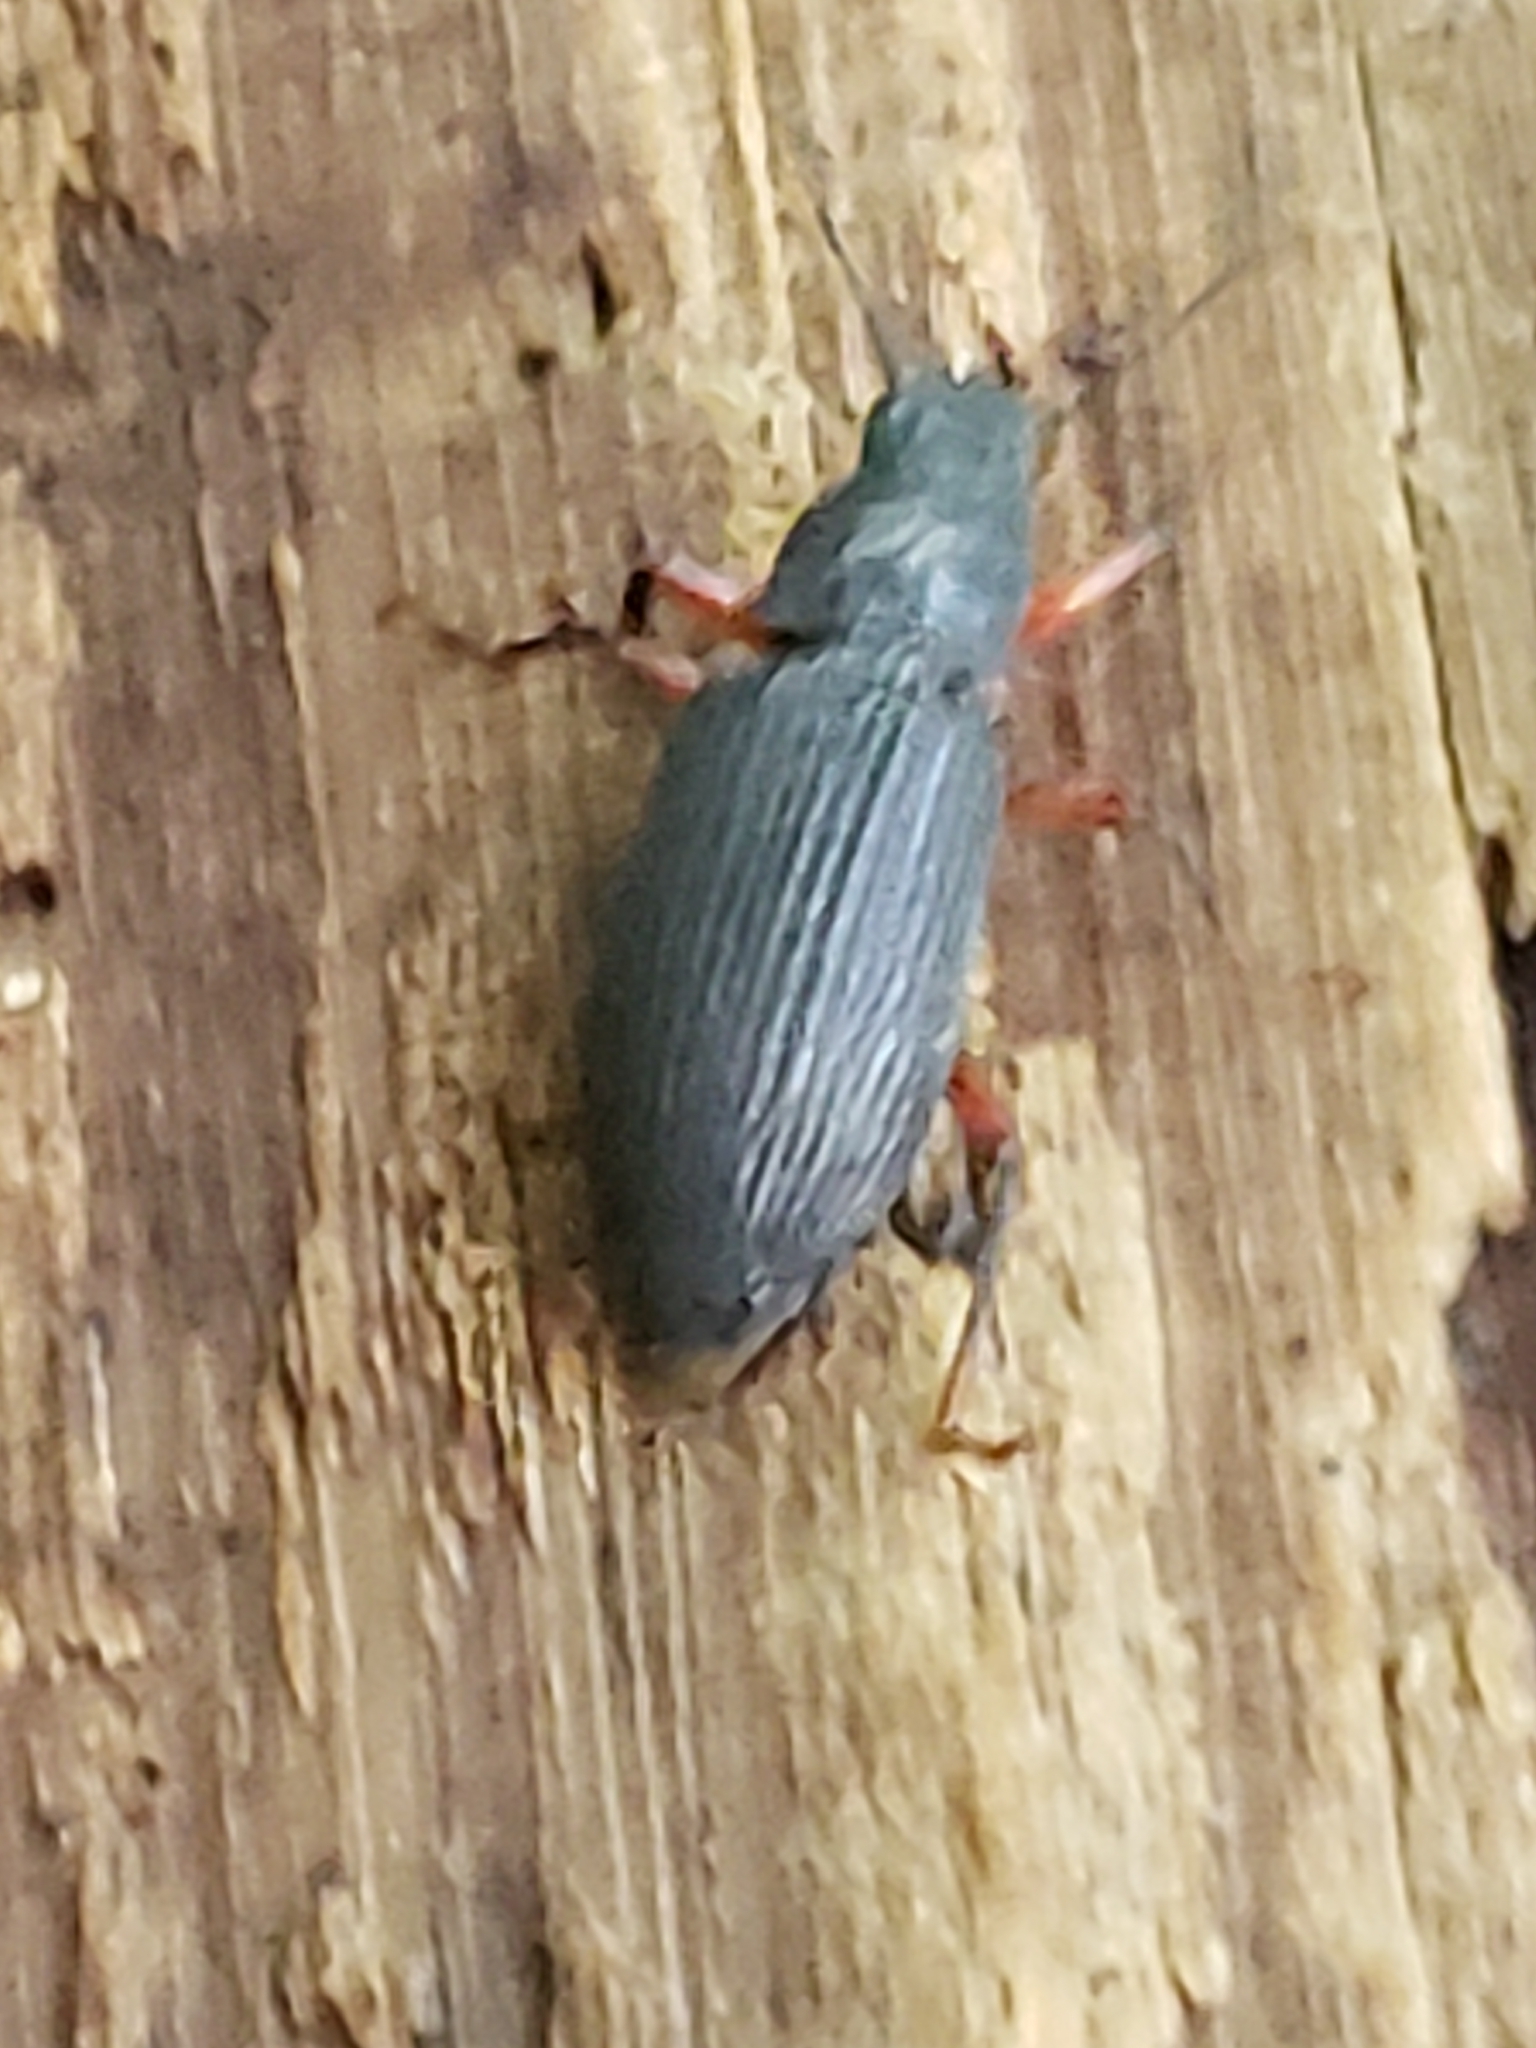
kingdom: Animalia
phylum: Arthropoda
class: Insecta
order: Coleoptera
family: Tenebrionidae
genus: Xylopinus
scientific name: Xylopinus saperdoides
